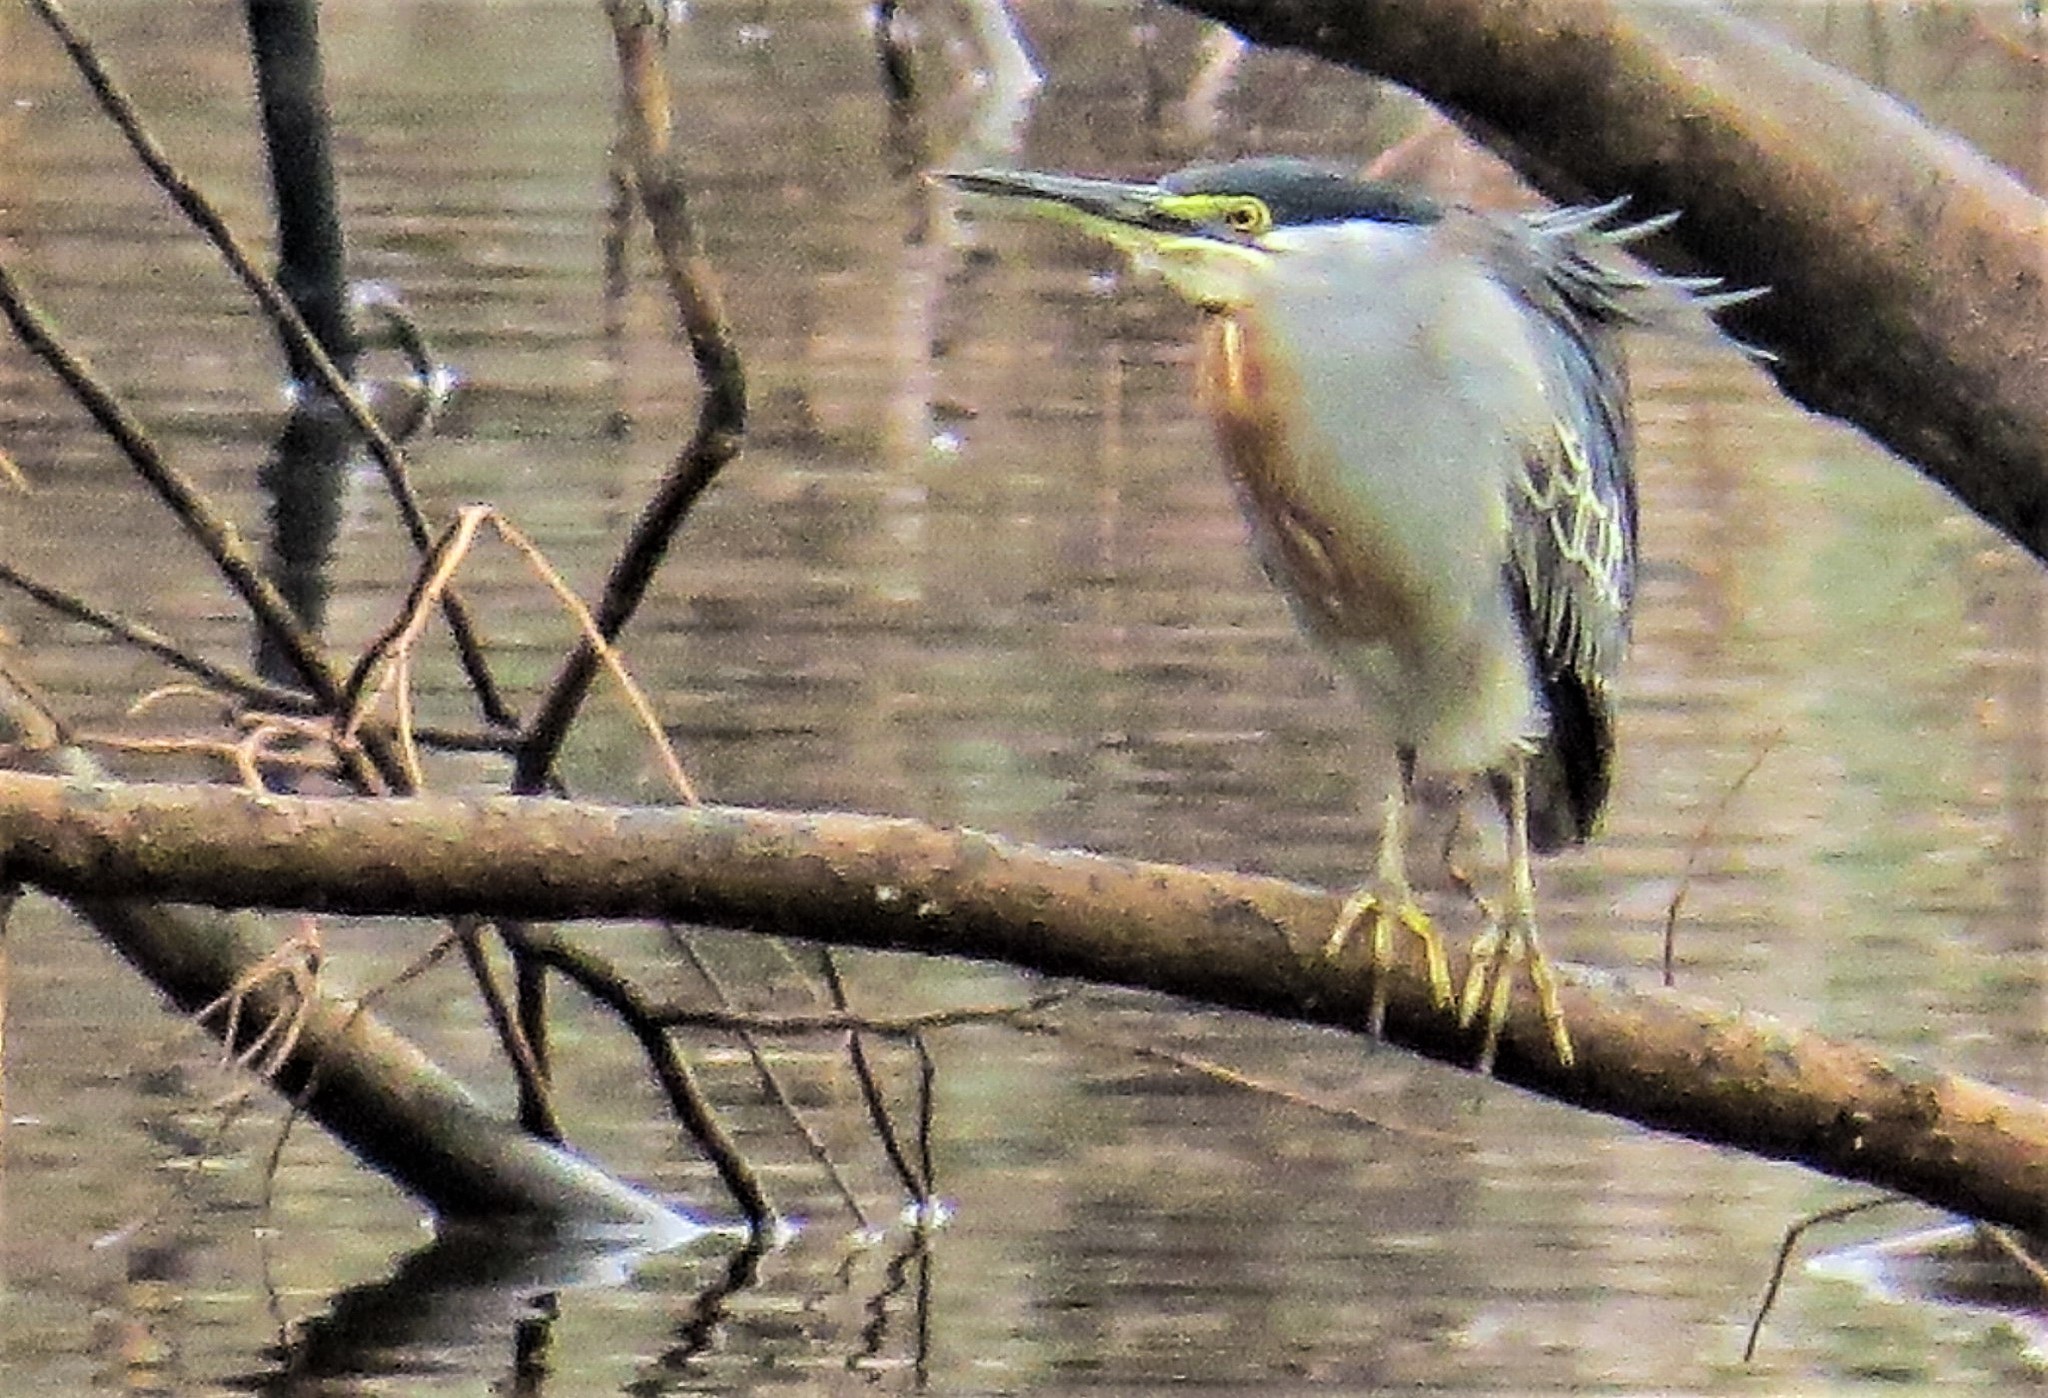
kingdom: Animalia
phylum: Chordata
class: Aves
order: Pelecaniformes
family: Ardeidae
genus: Butorides
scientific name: Butorides striata
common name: Striated heron
